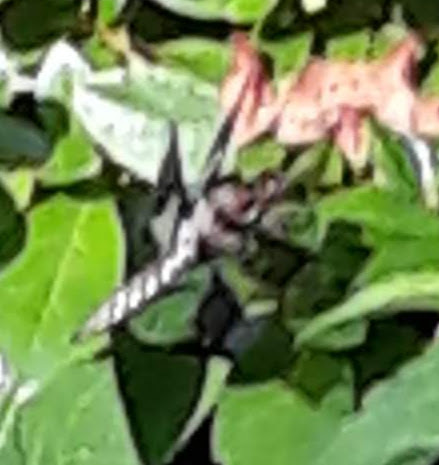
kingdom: Animalia
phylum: Arthropoda
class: Insecta
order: Odonata
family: Libellulidae
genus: Plathemis
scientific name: Plathemis lydia
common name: Common whitetail
